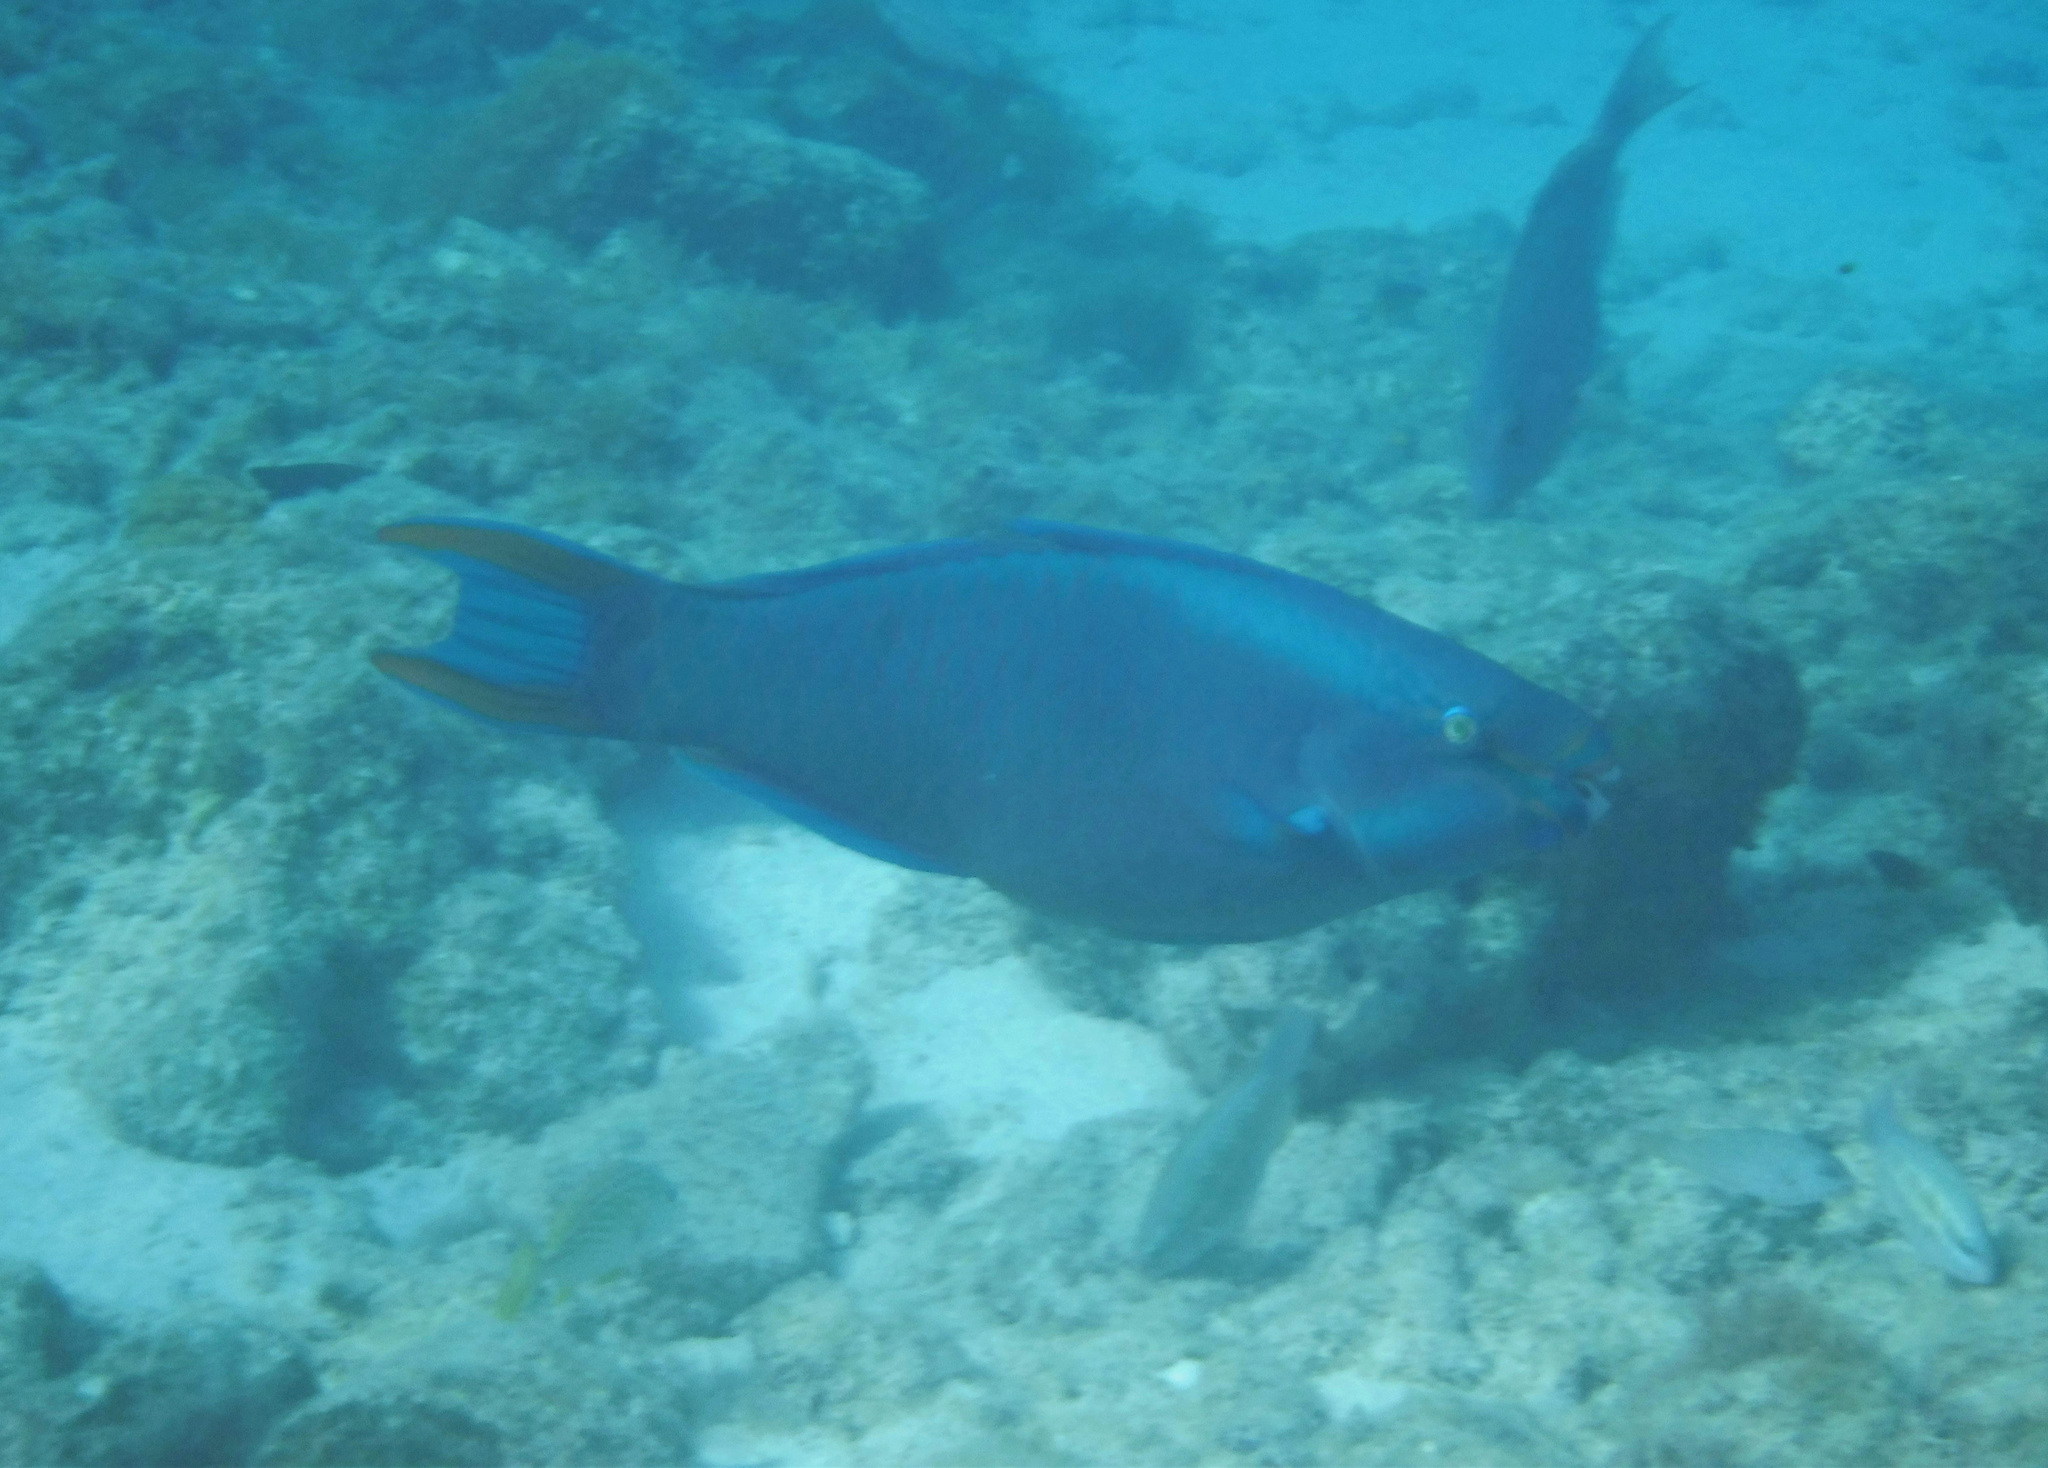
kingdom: Animalia
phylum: Chordata
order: Perciformes
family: Scaridae
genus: Scarus
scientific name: Scarus vetula
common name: Queen parrotfish
